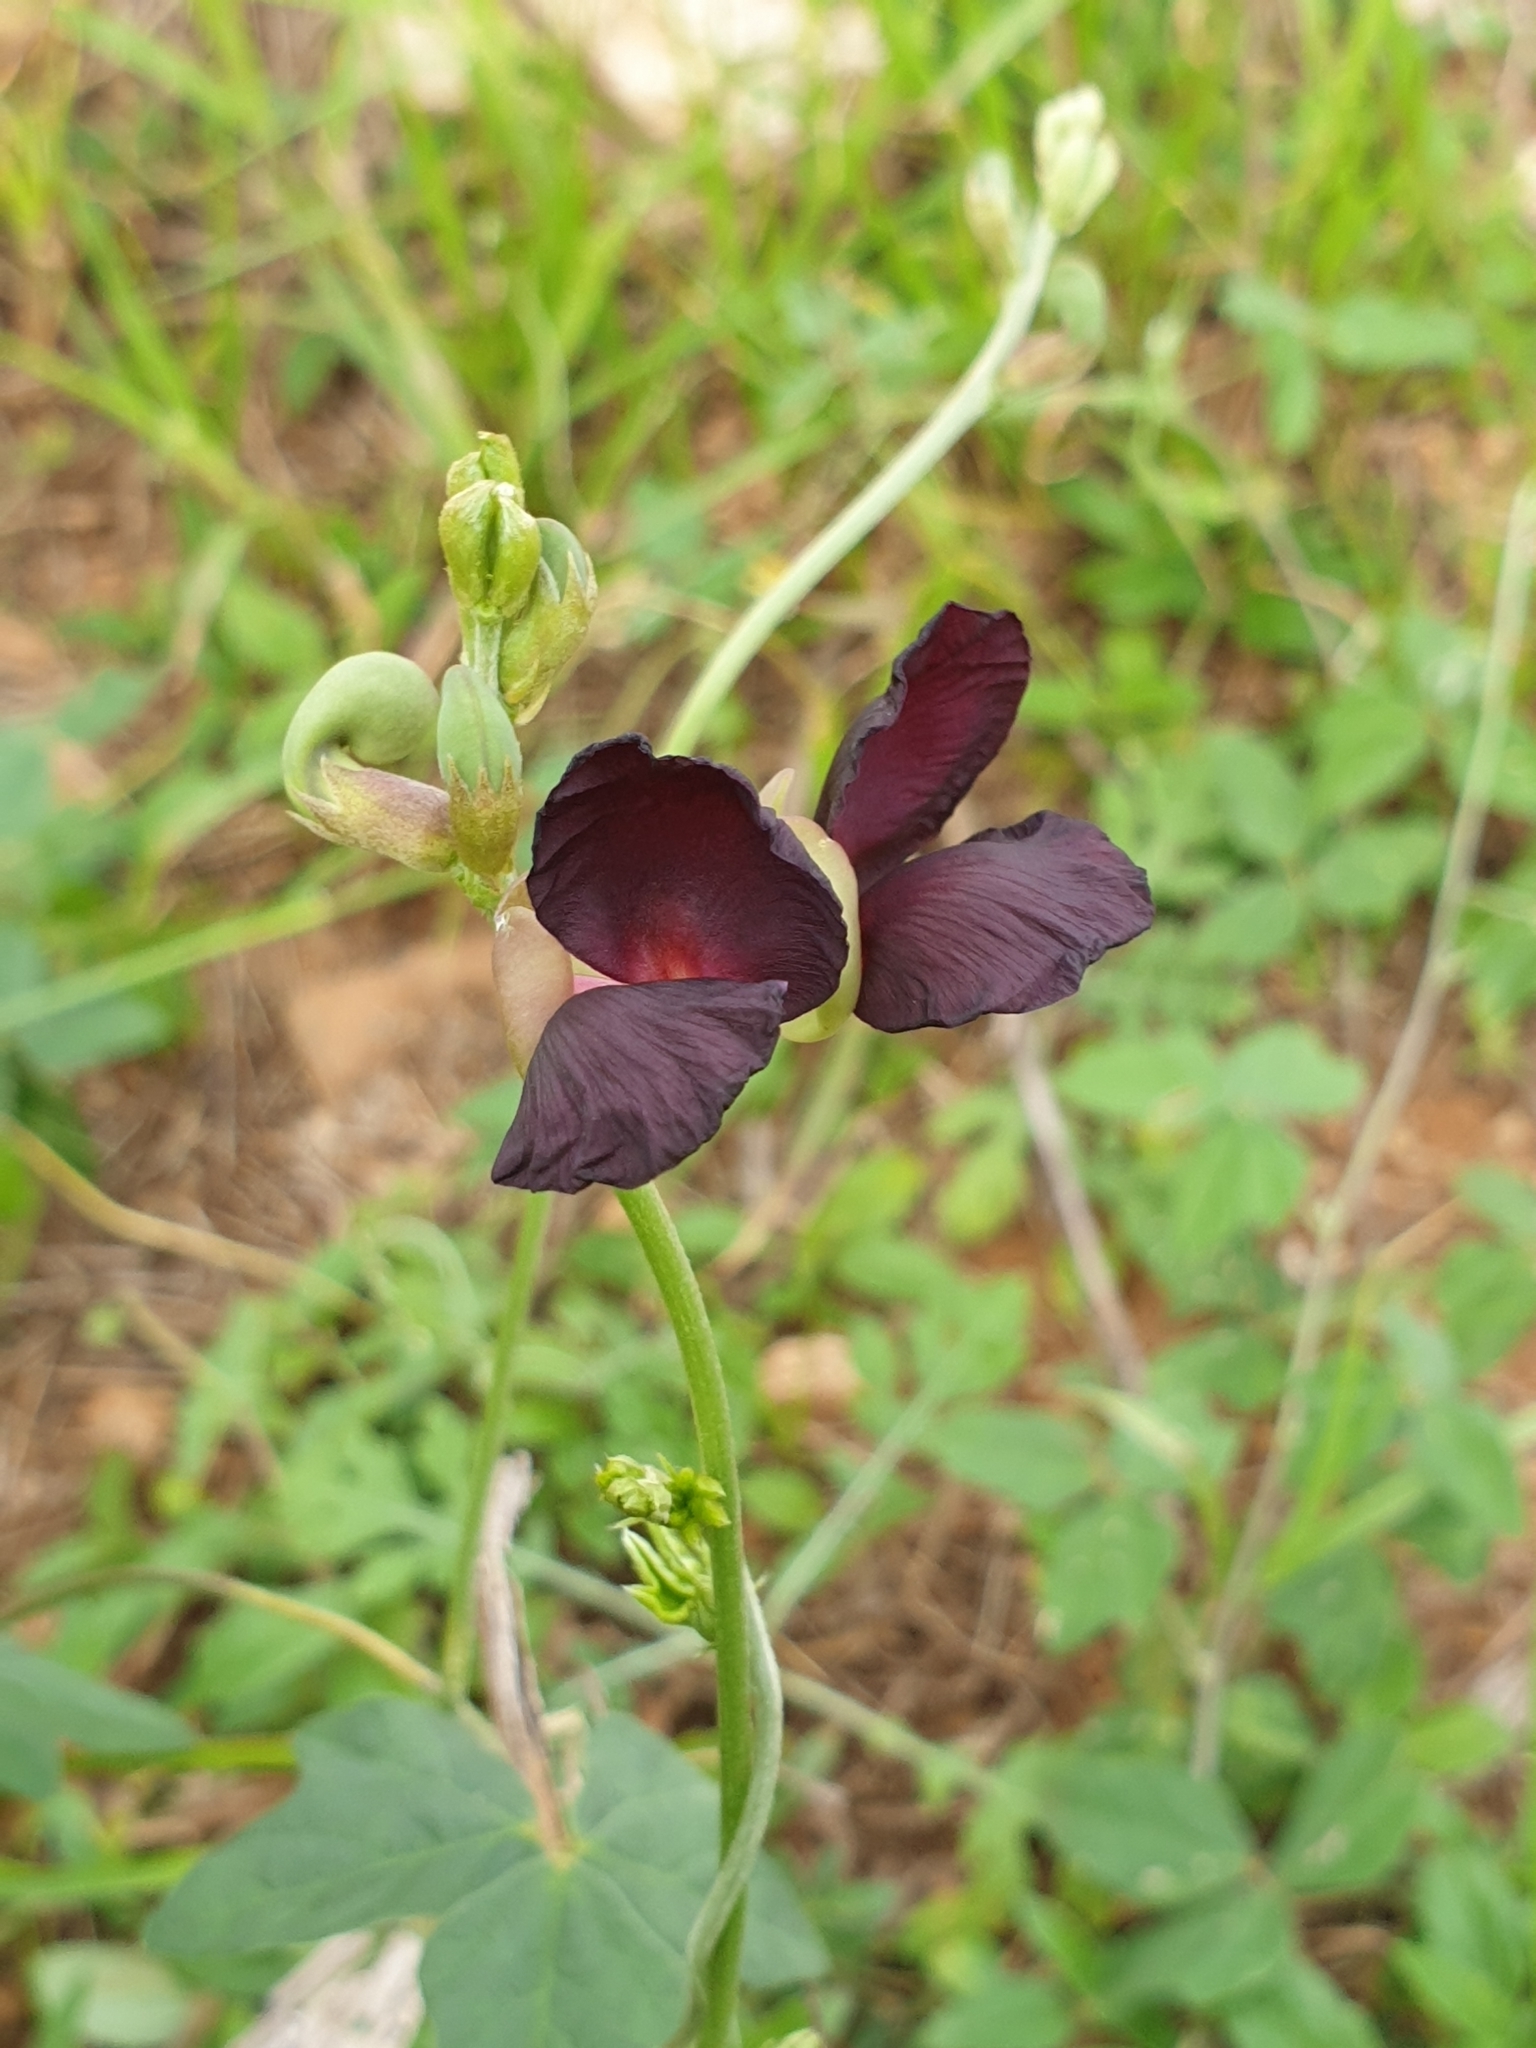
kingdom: Plantae
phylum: Tracheophyta
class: Magnoliopsida
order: Fabales
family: Fabaceae
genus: Macroptilium
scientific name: Macroptilium atropurpureum
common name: Purple bushbean
